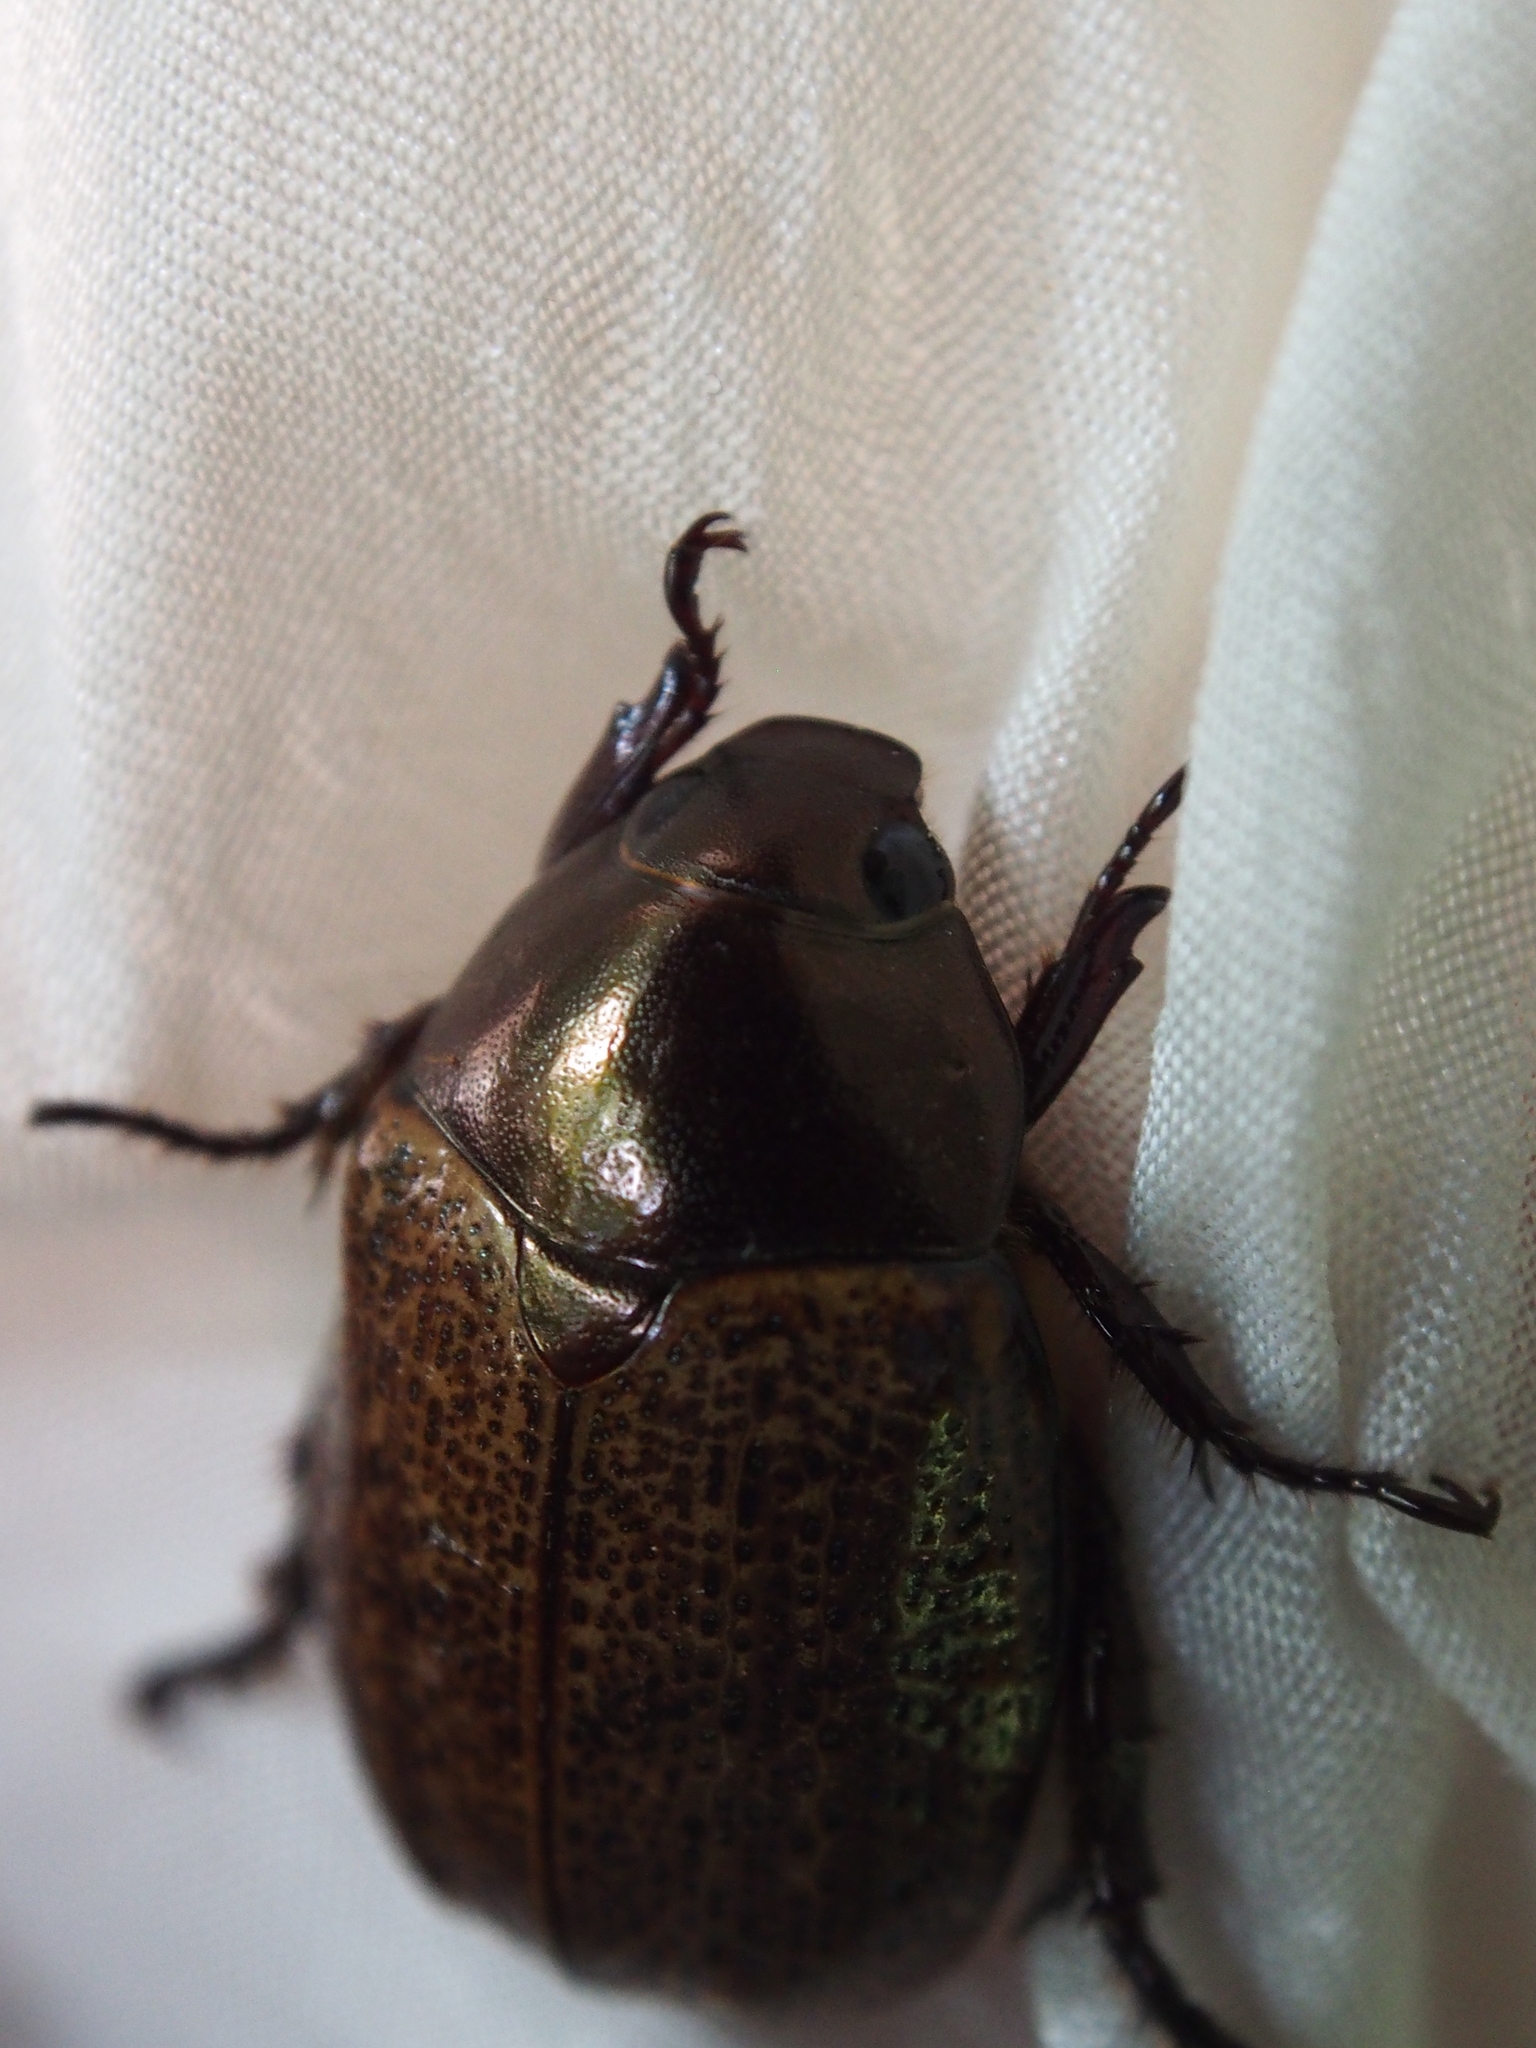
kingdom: Animalia
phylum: Arthropoda
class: Insecta
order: Coleoptera
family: Scarabaeidae
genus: Paranomala
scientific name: Paranomala cupricollis
